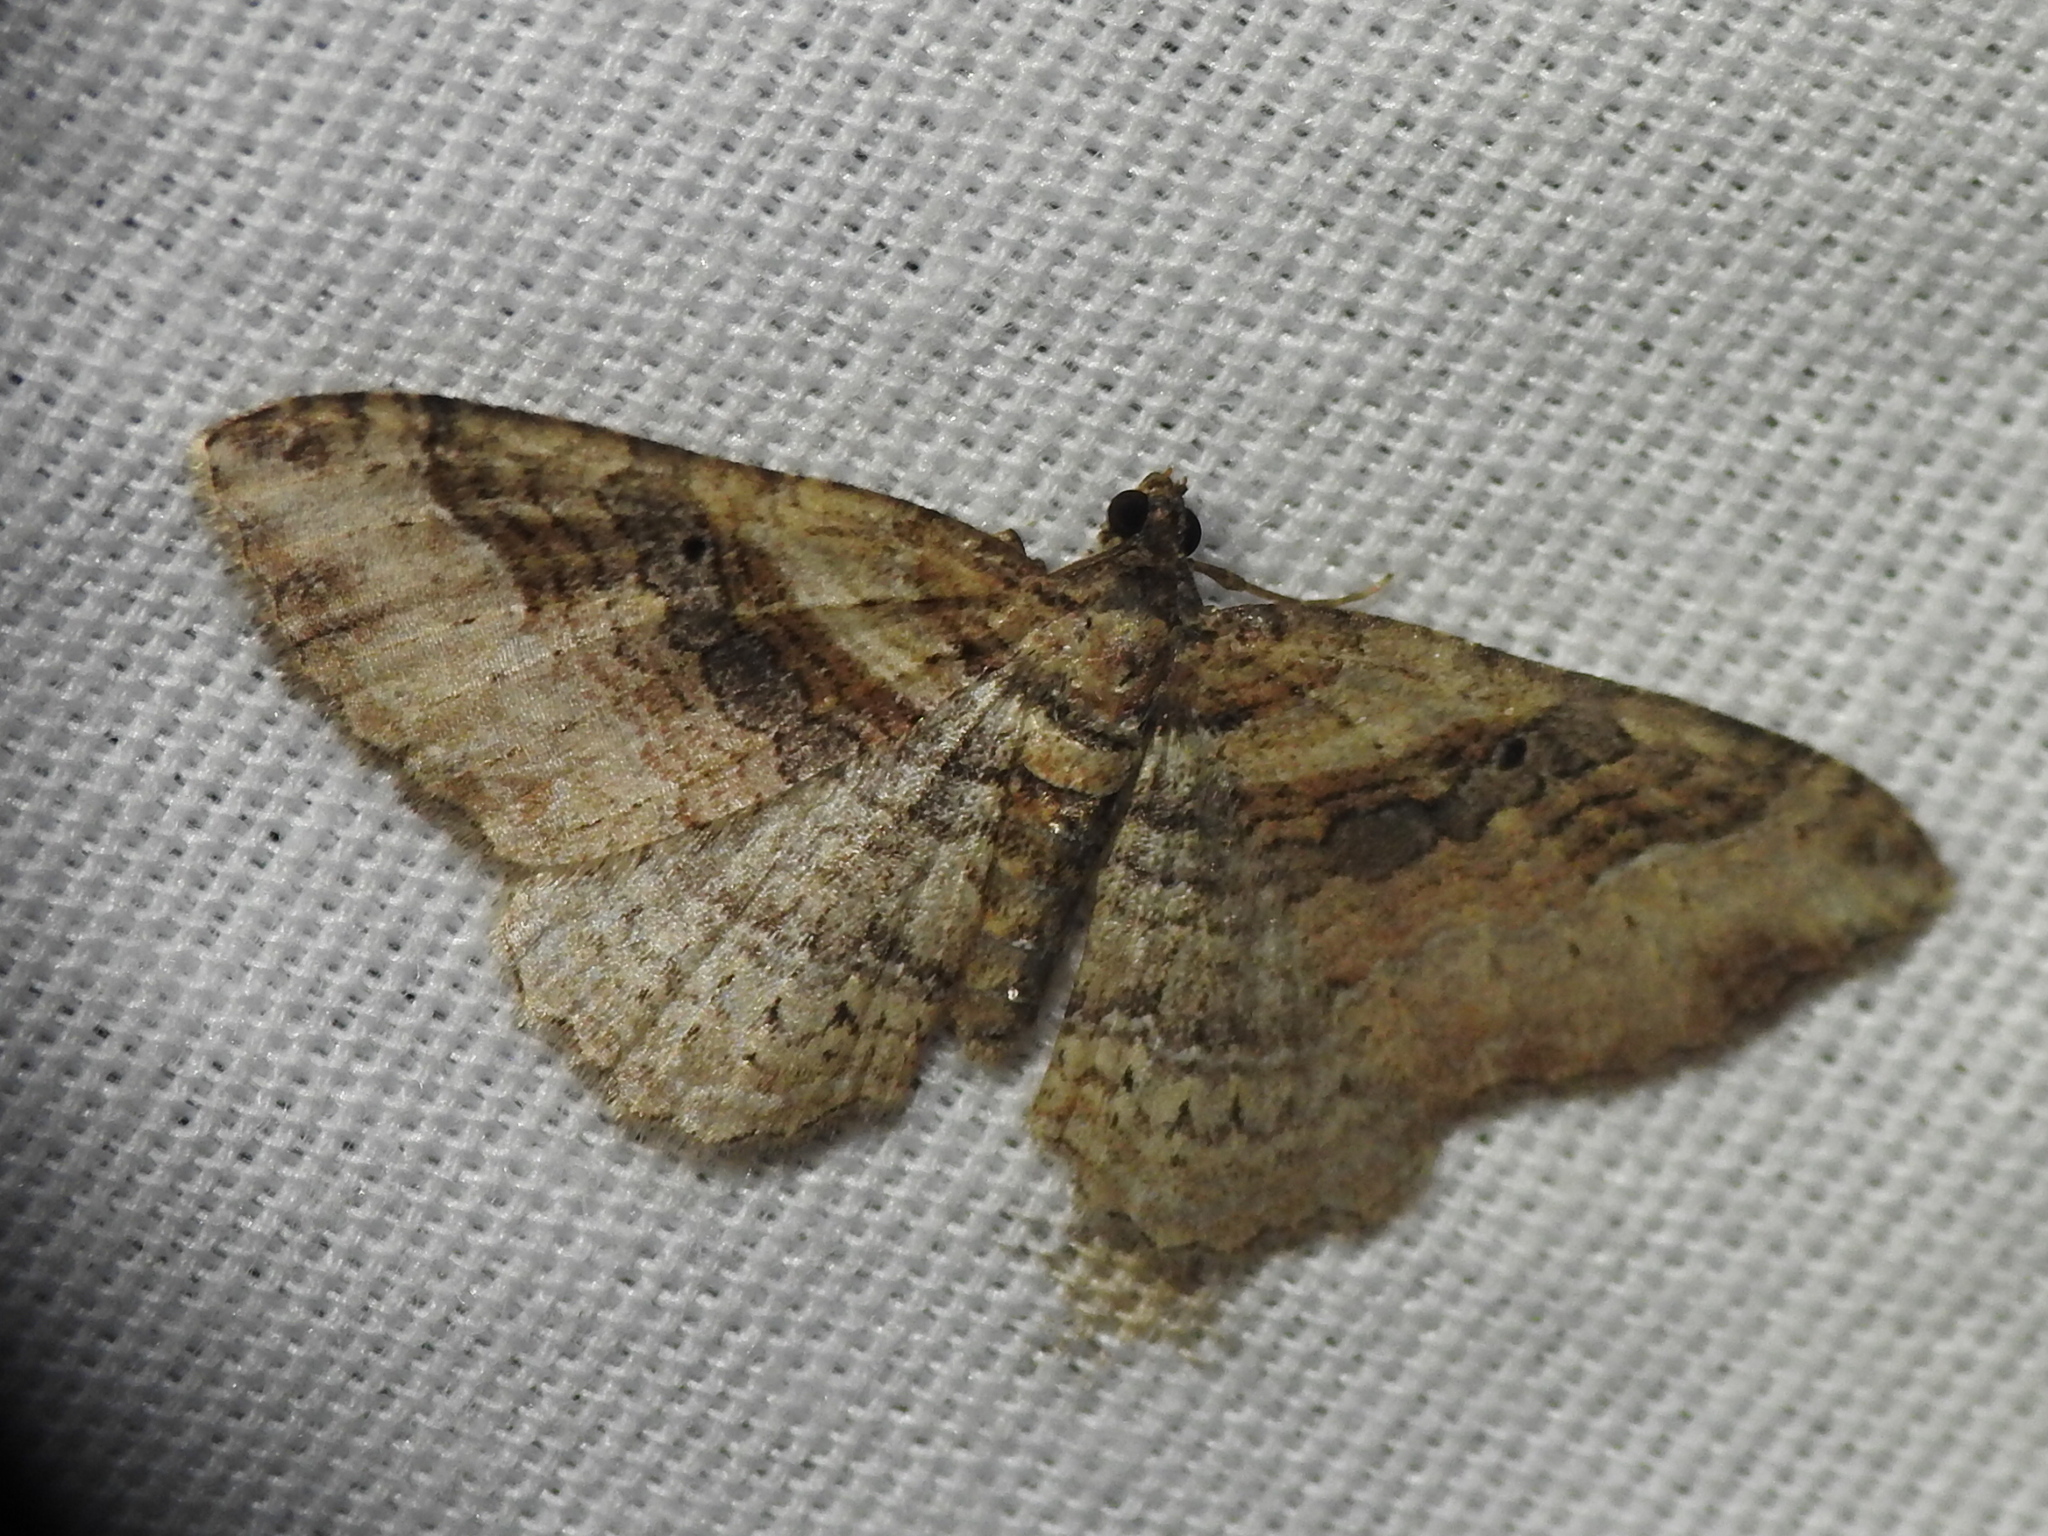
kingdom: Animalia
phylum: Arthropoda
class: Insecta
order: Lepidoptera
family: Geometridae
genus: Costaconvexa
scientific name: Costaconvexa centrostrigaria
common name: Bent-line carpet
